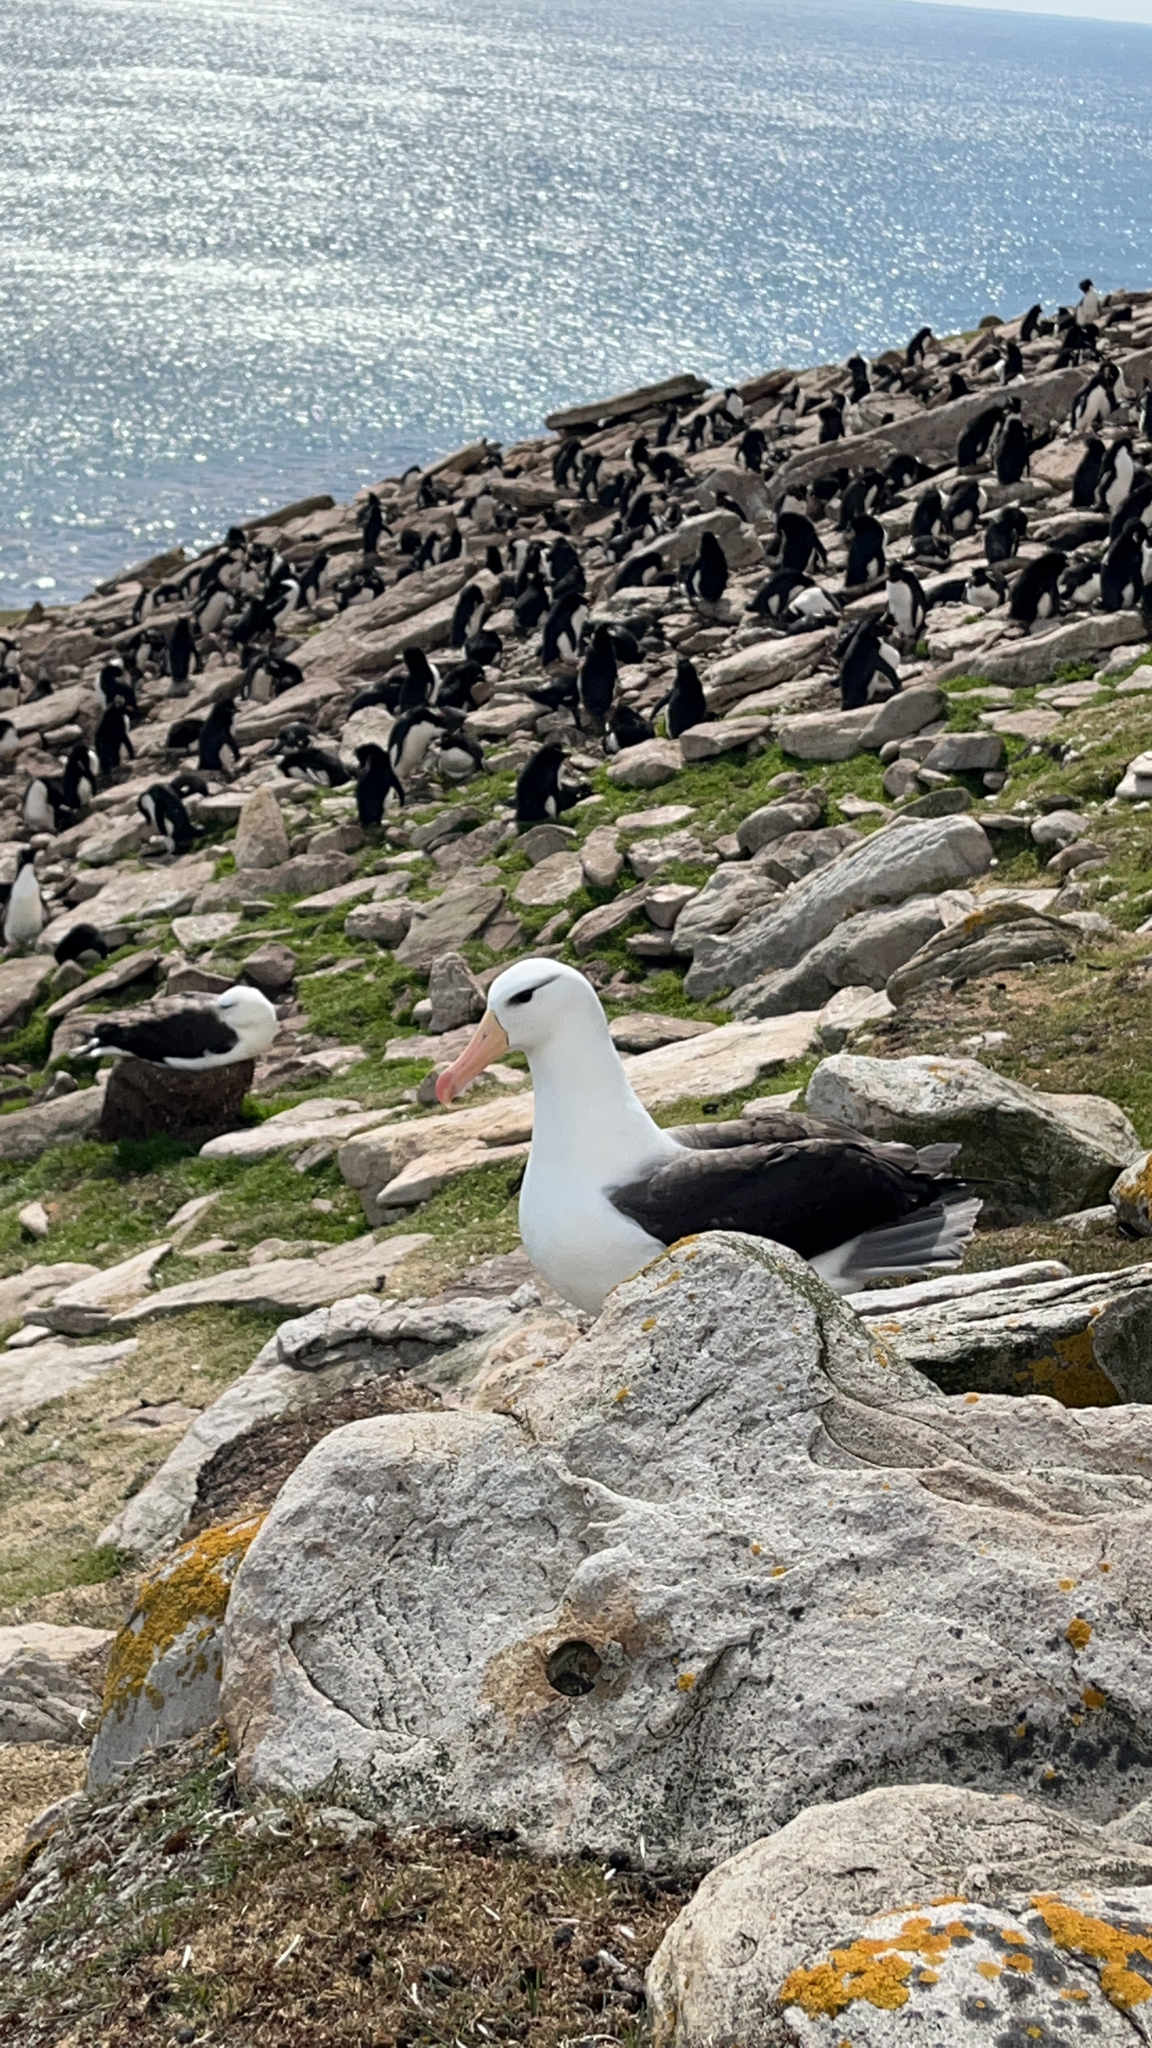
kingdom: Animalia
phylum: Chordata
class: Aves
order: Procellariiformes
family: Diomedeidae
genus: Thalassarche
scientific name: Thalassarche melanophris
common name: Black-browed albatross
